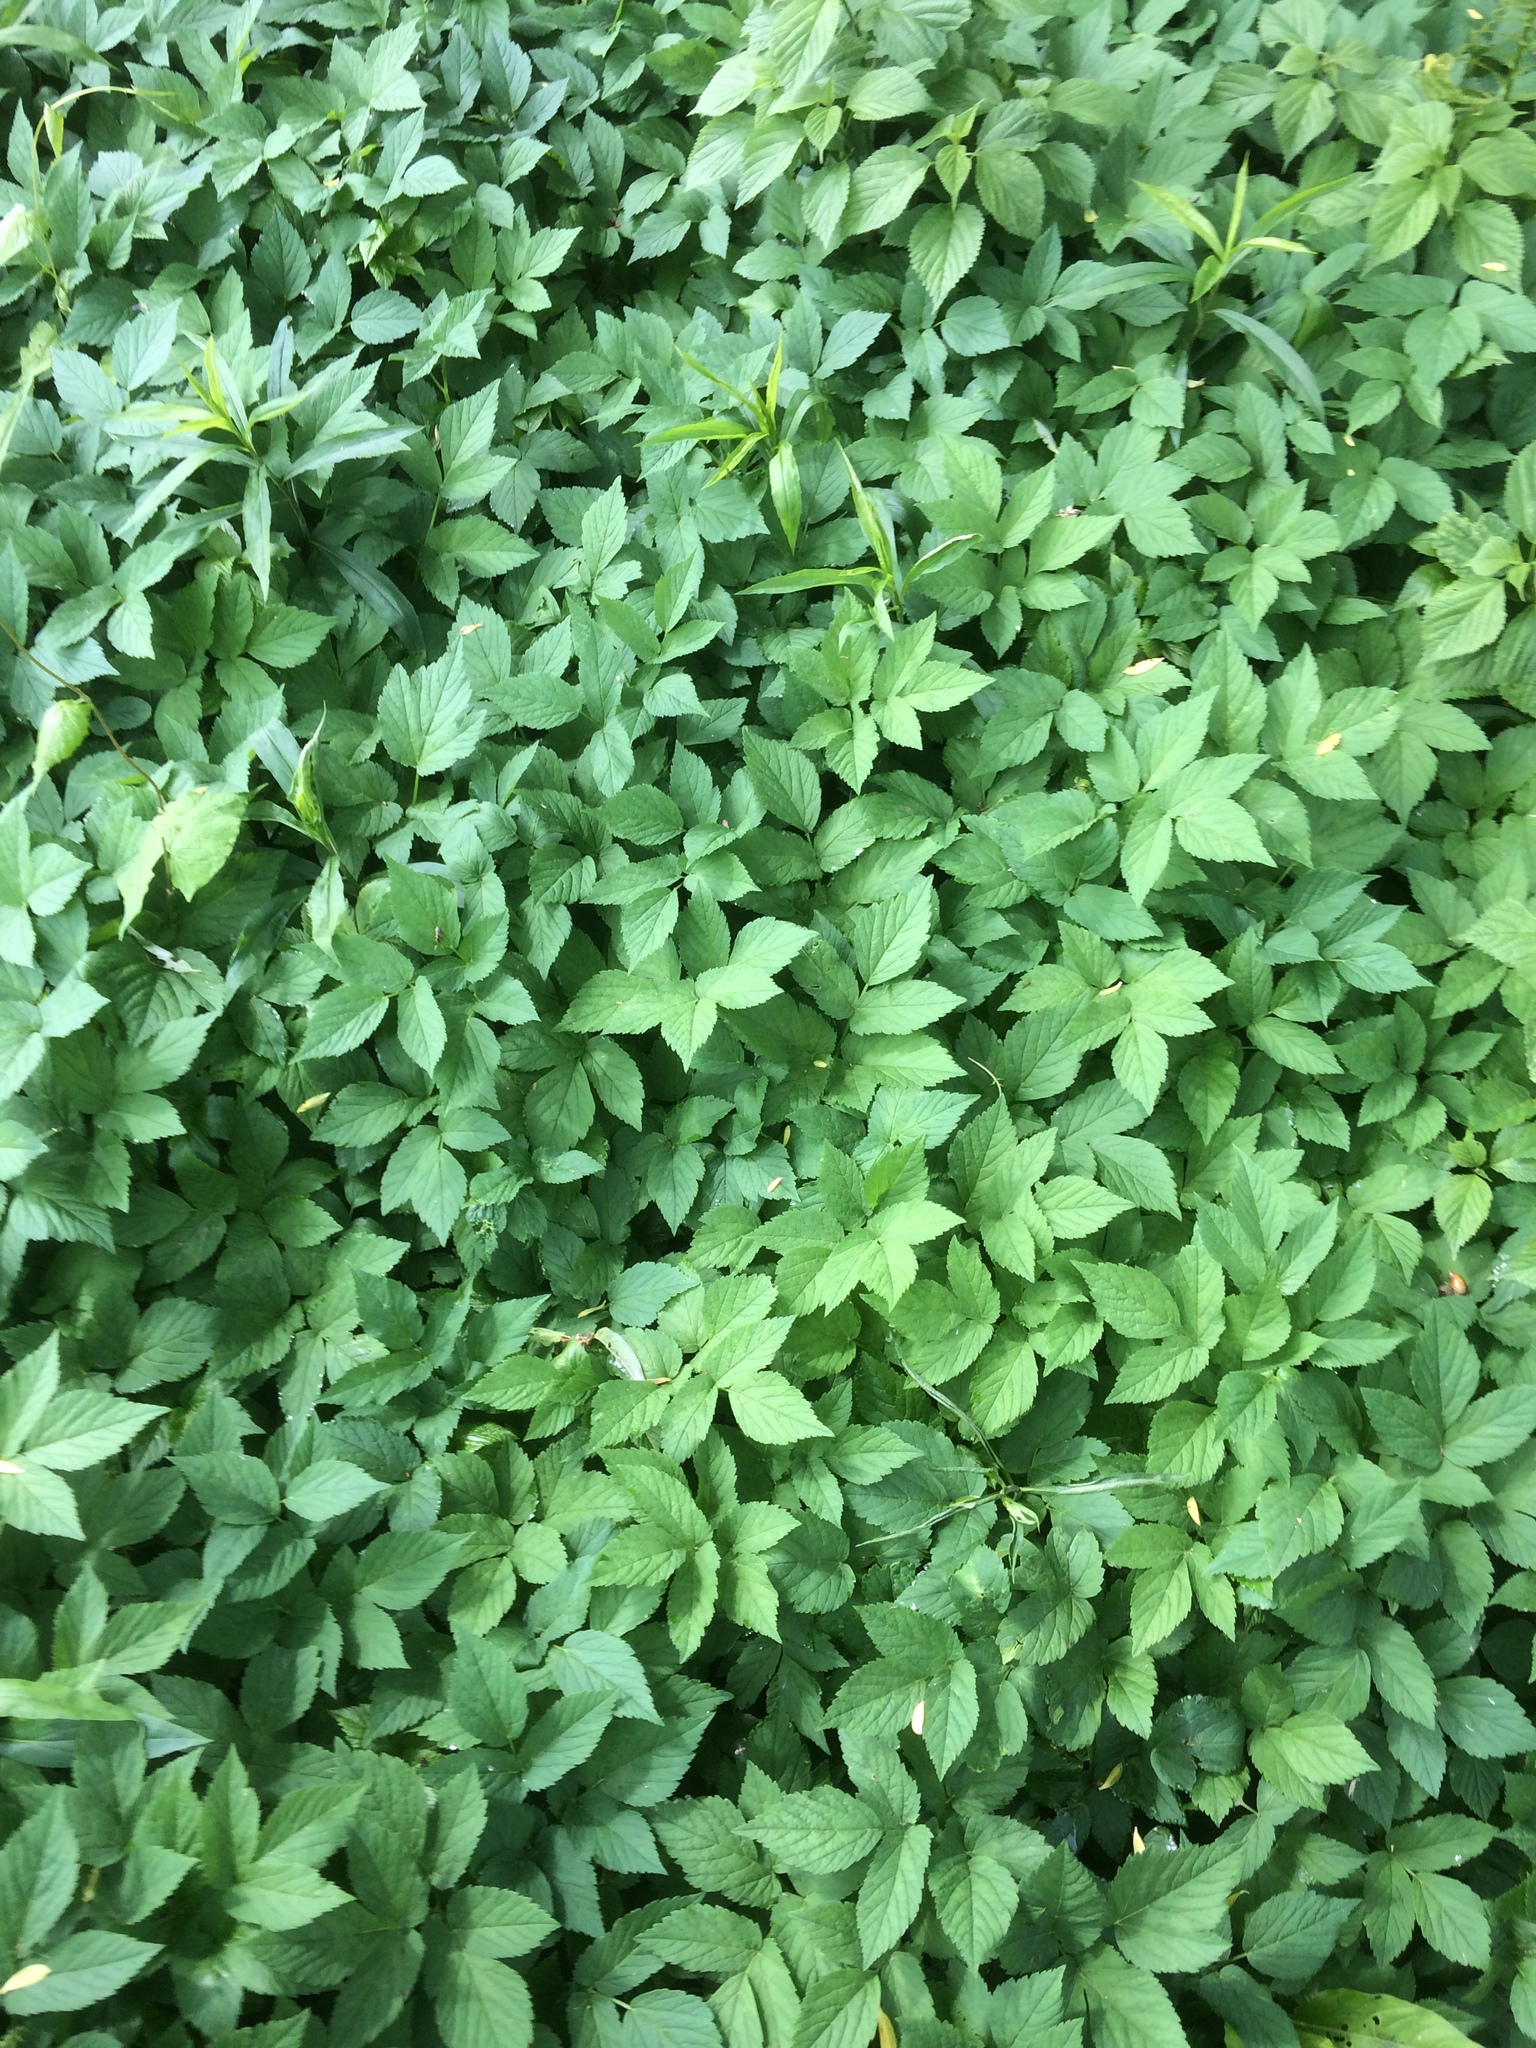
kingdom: Plantae
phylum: Tracheophyta
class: Magnoliopsida
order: Apiales
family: Apiaceae
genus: Aegopodium
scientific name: Aegopodium podagraria
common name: Ground-elder
